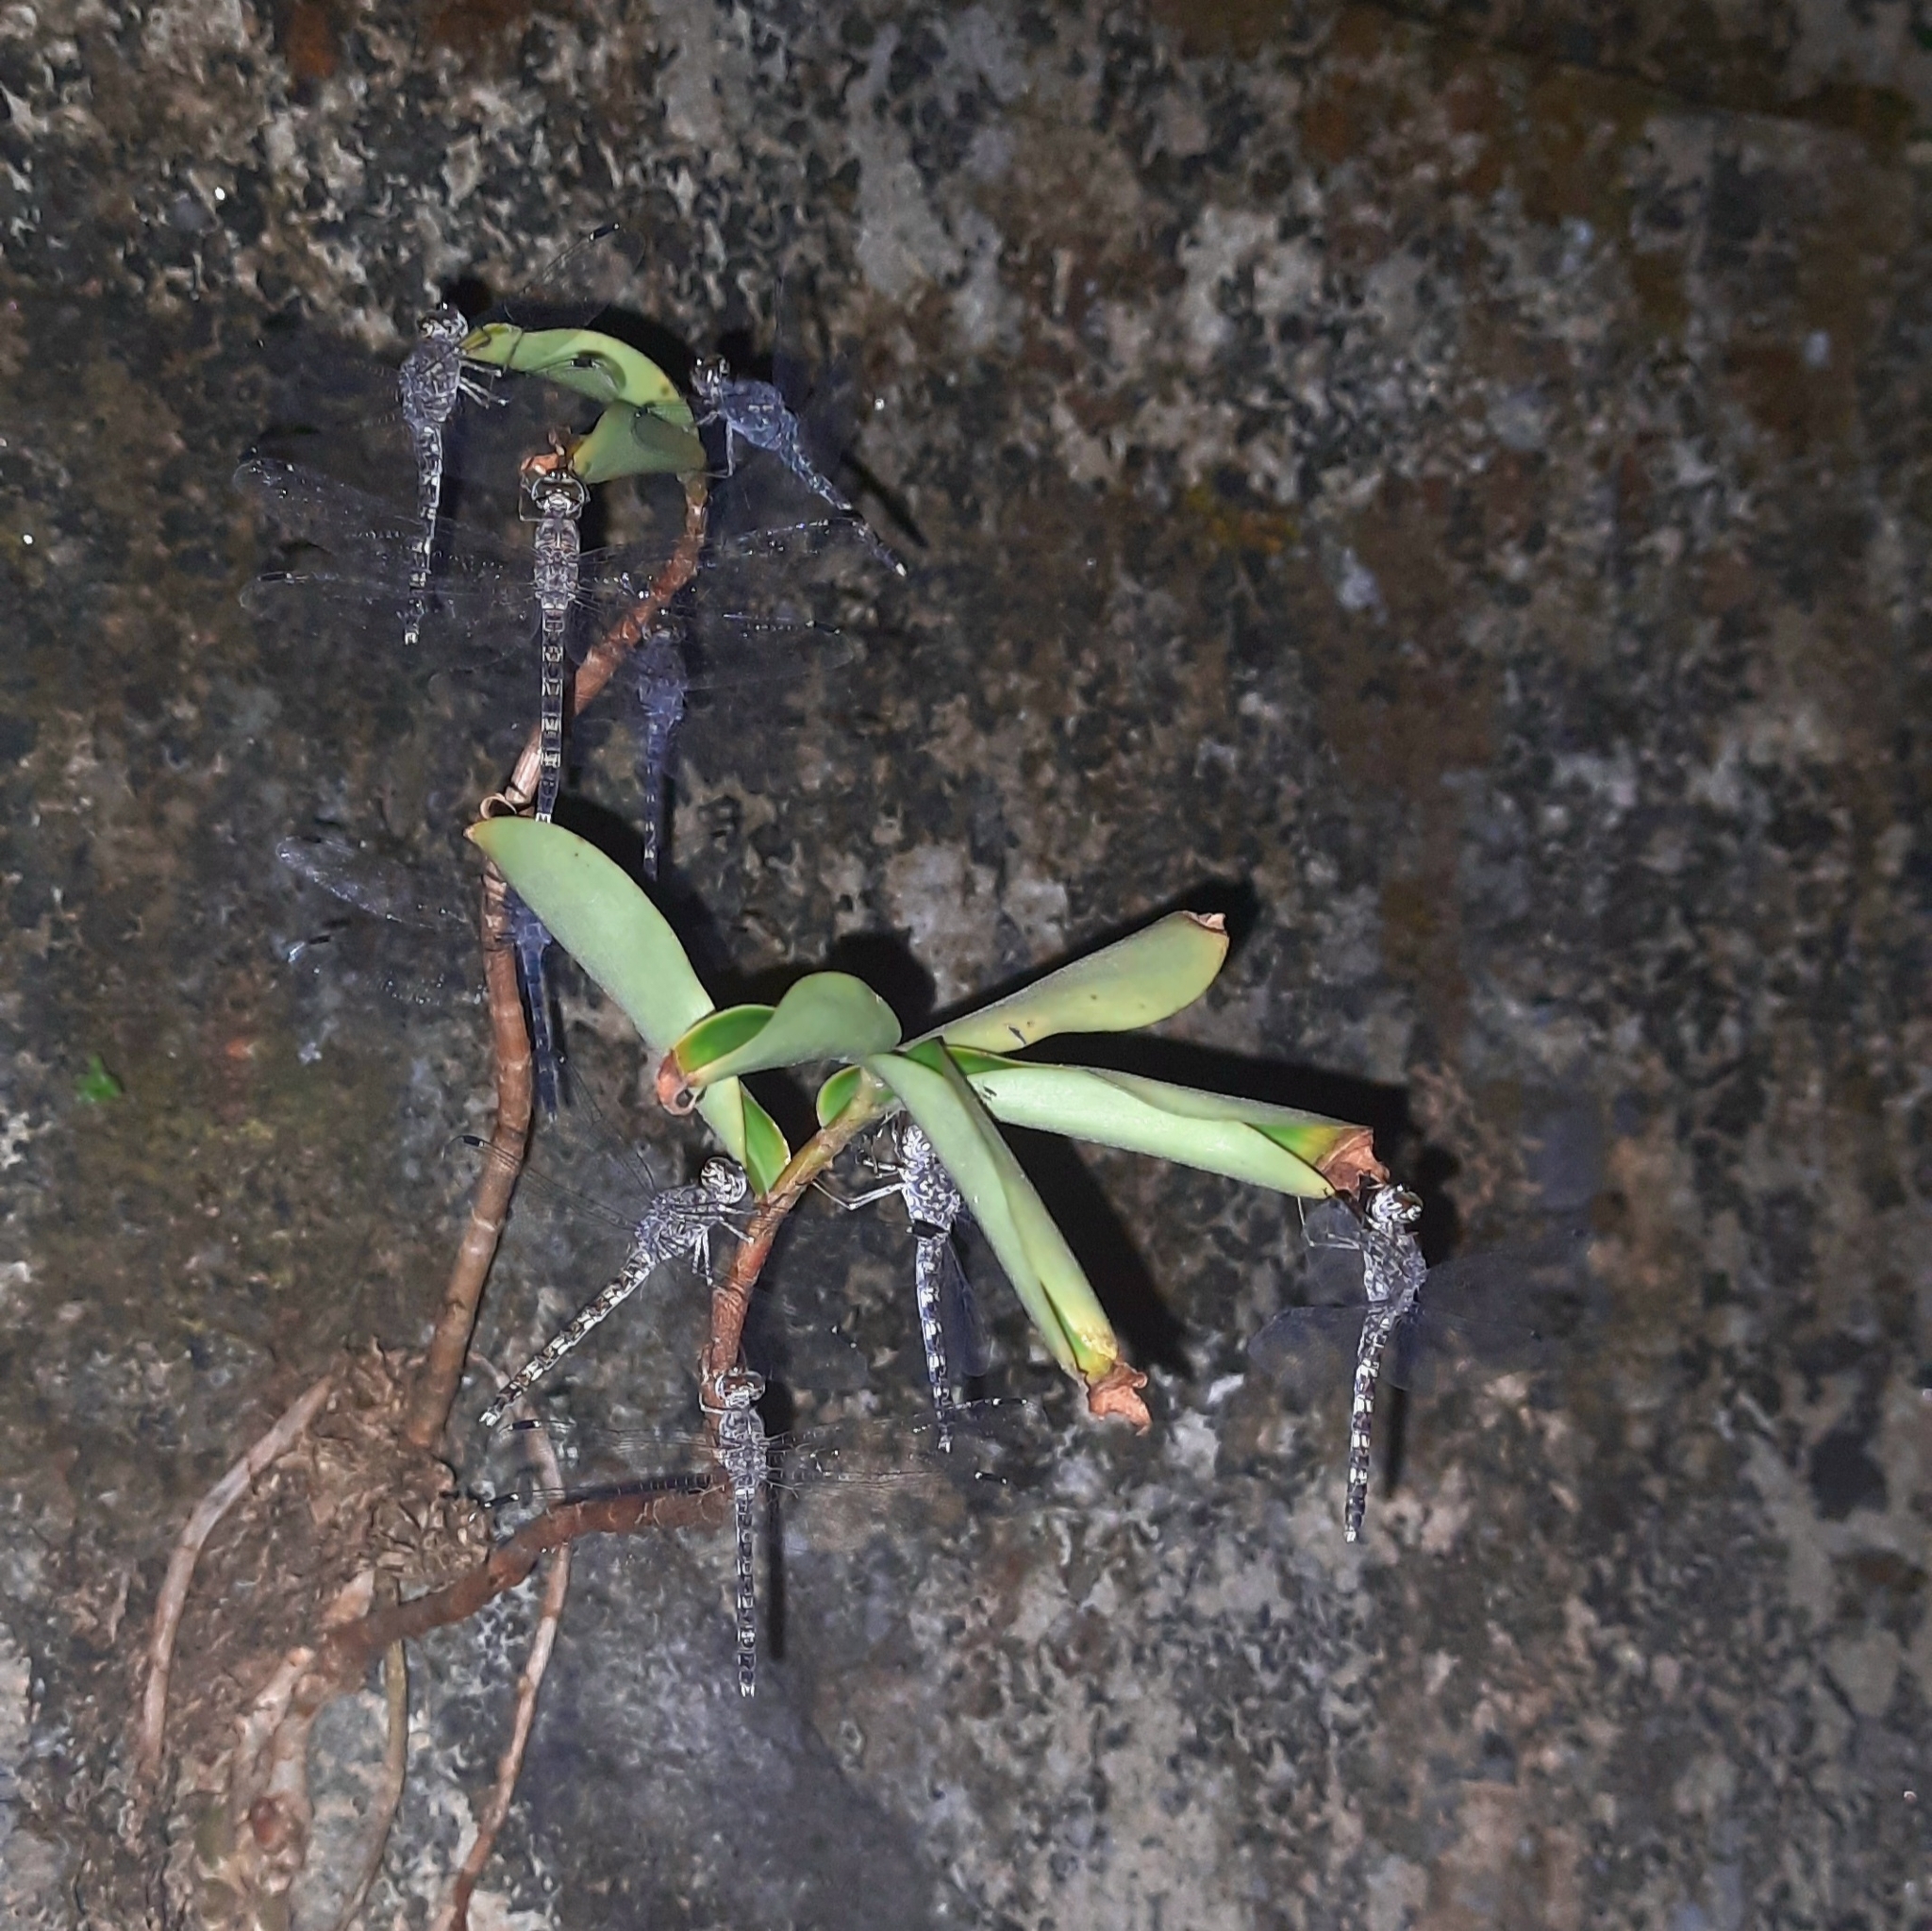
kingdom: Animalia
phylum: Arthropoda
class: Insecta
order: Odonata
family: Libellulidae
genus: Bradinopyga
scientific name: Bradinopyga geminata
